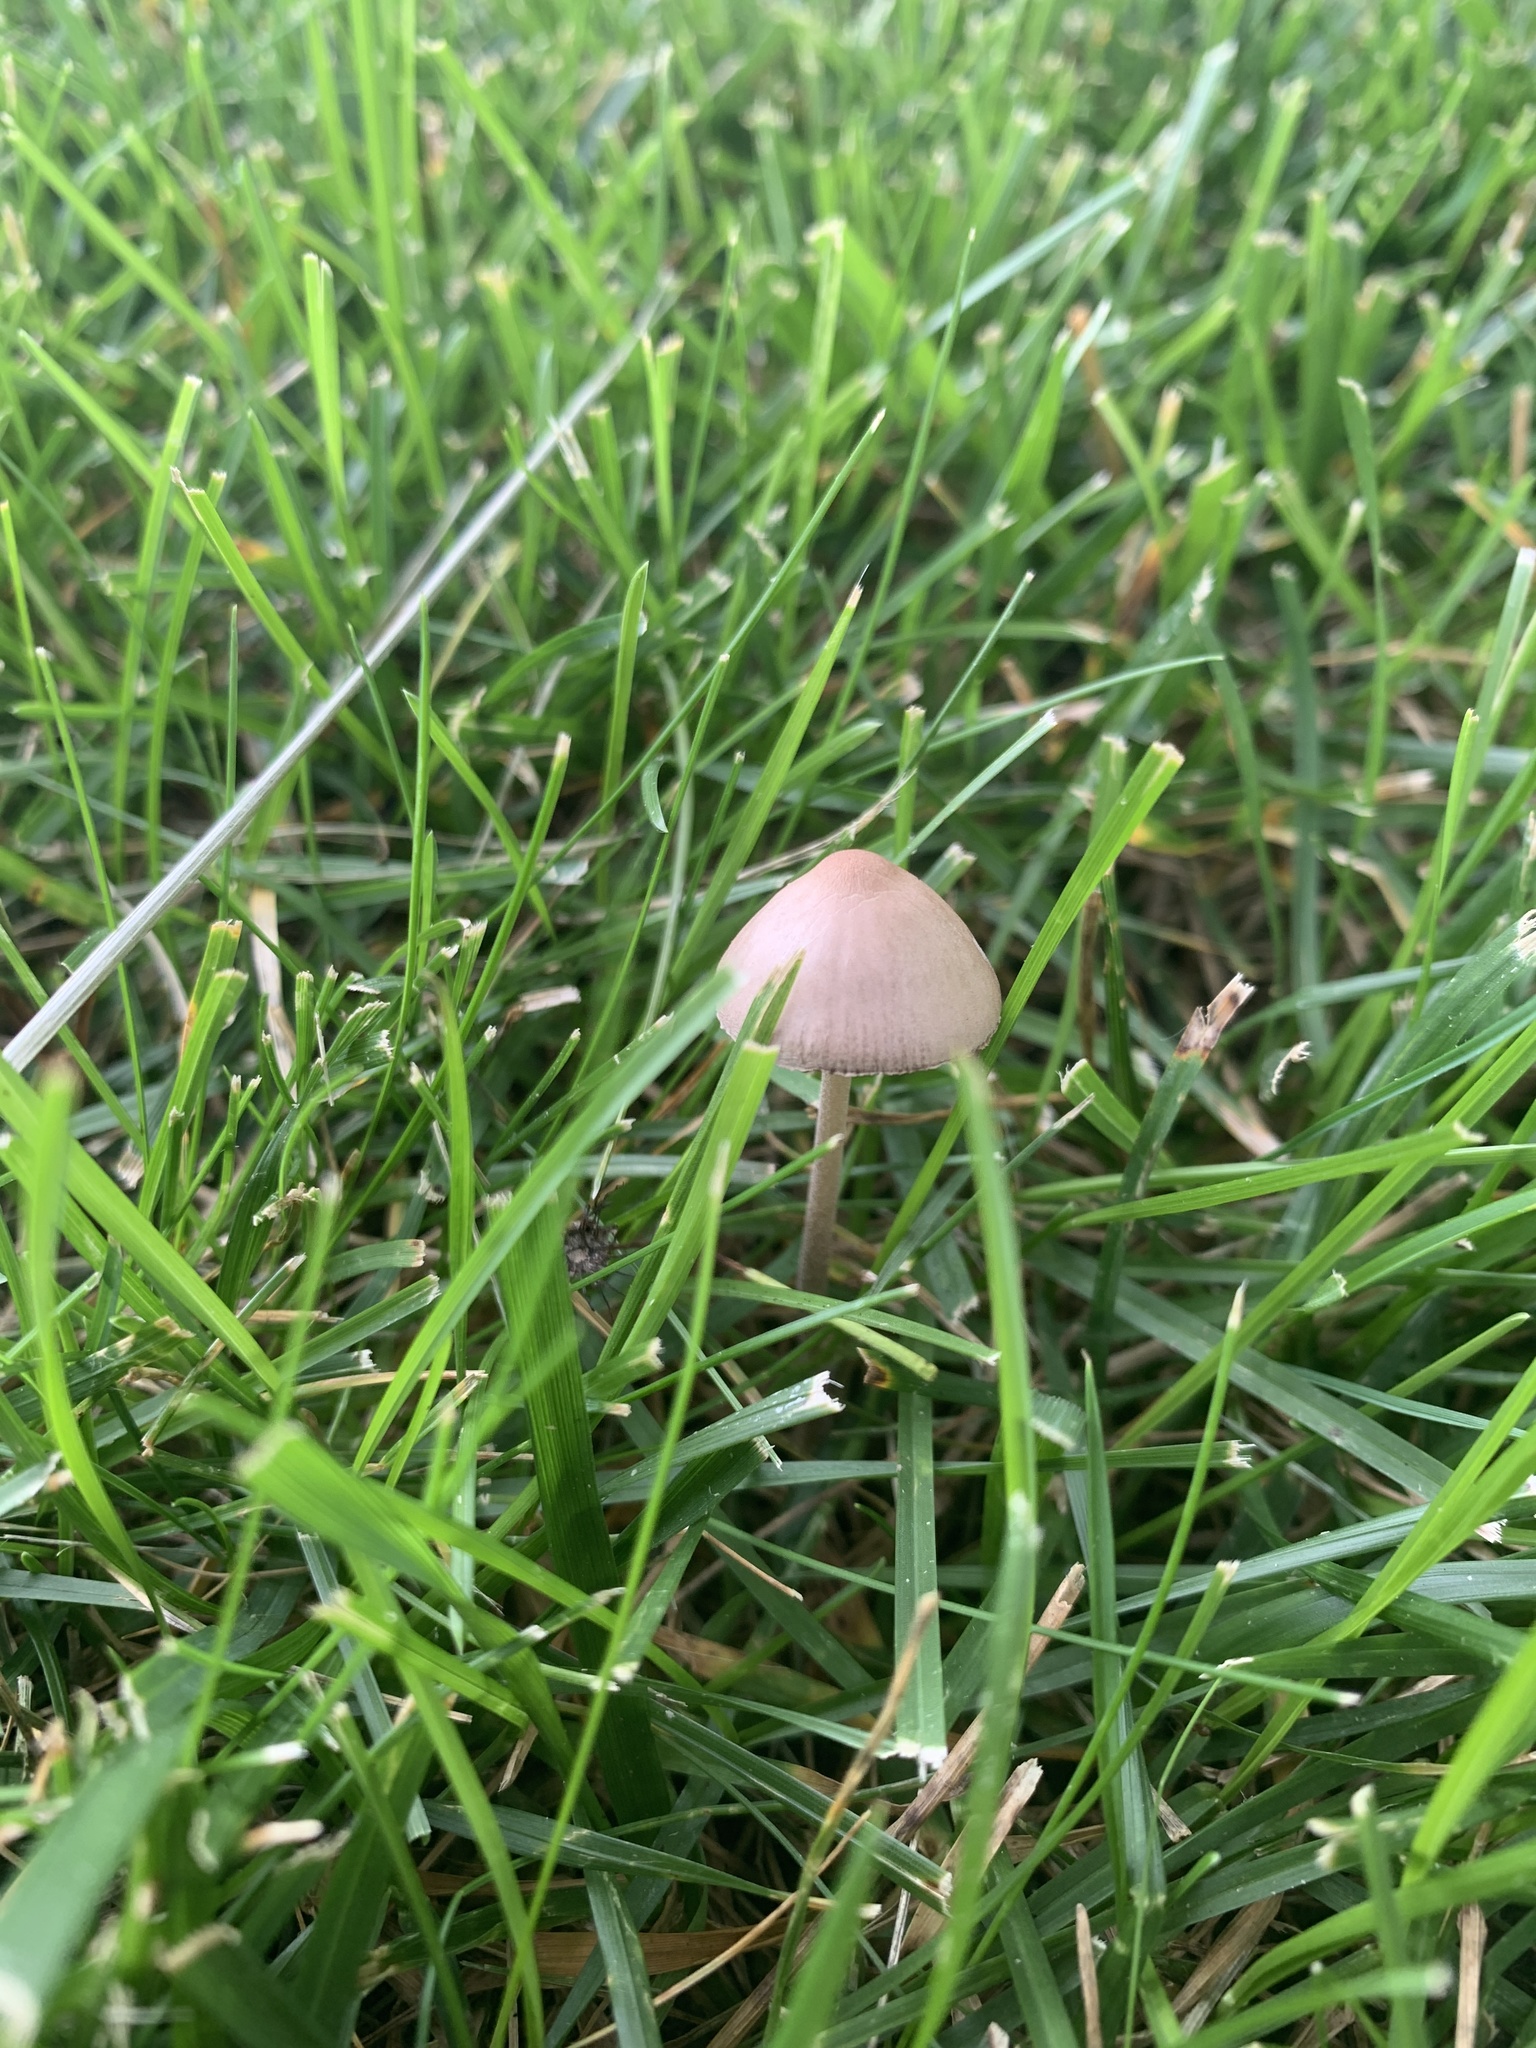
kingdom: Fungi
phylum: Basidiomycota
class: Agaricomycetes
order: Agaricales
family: Bolbitiaceae
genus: Panaeolina
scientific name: Panaeolina foenisecii
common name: Brown hay cap
